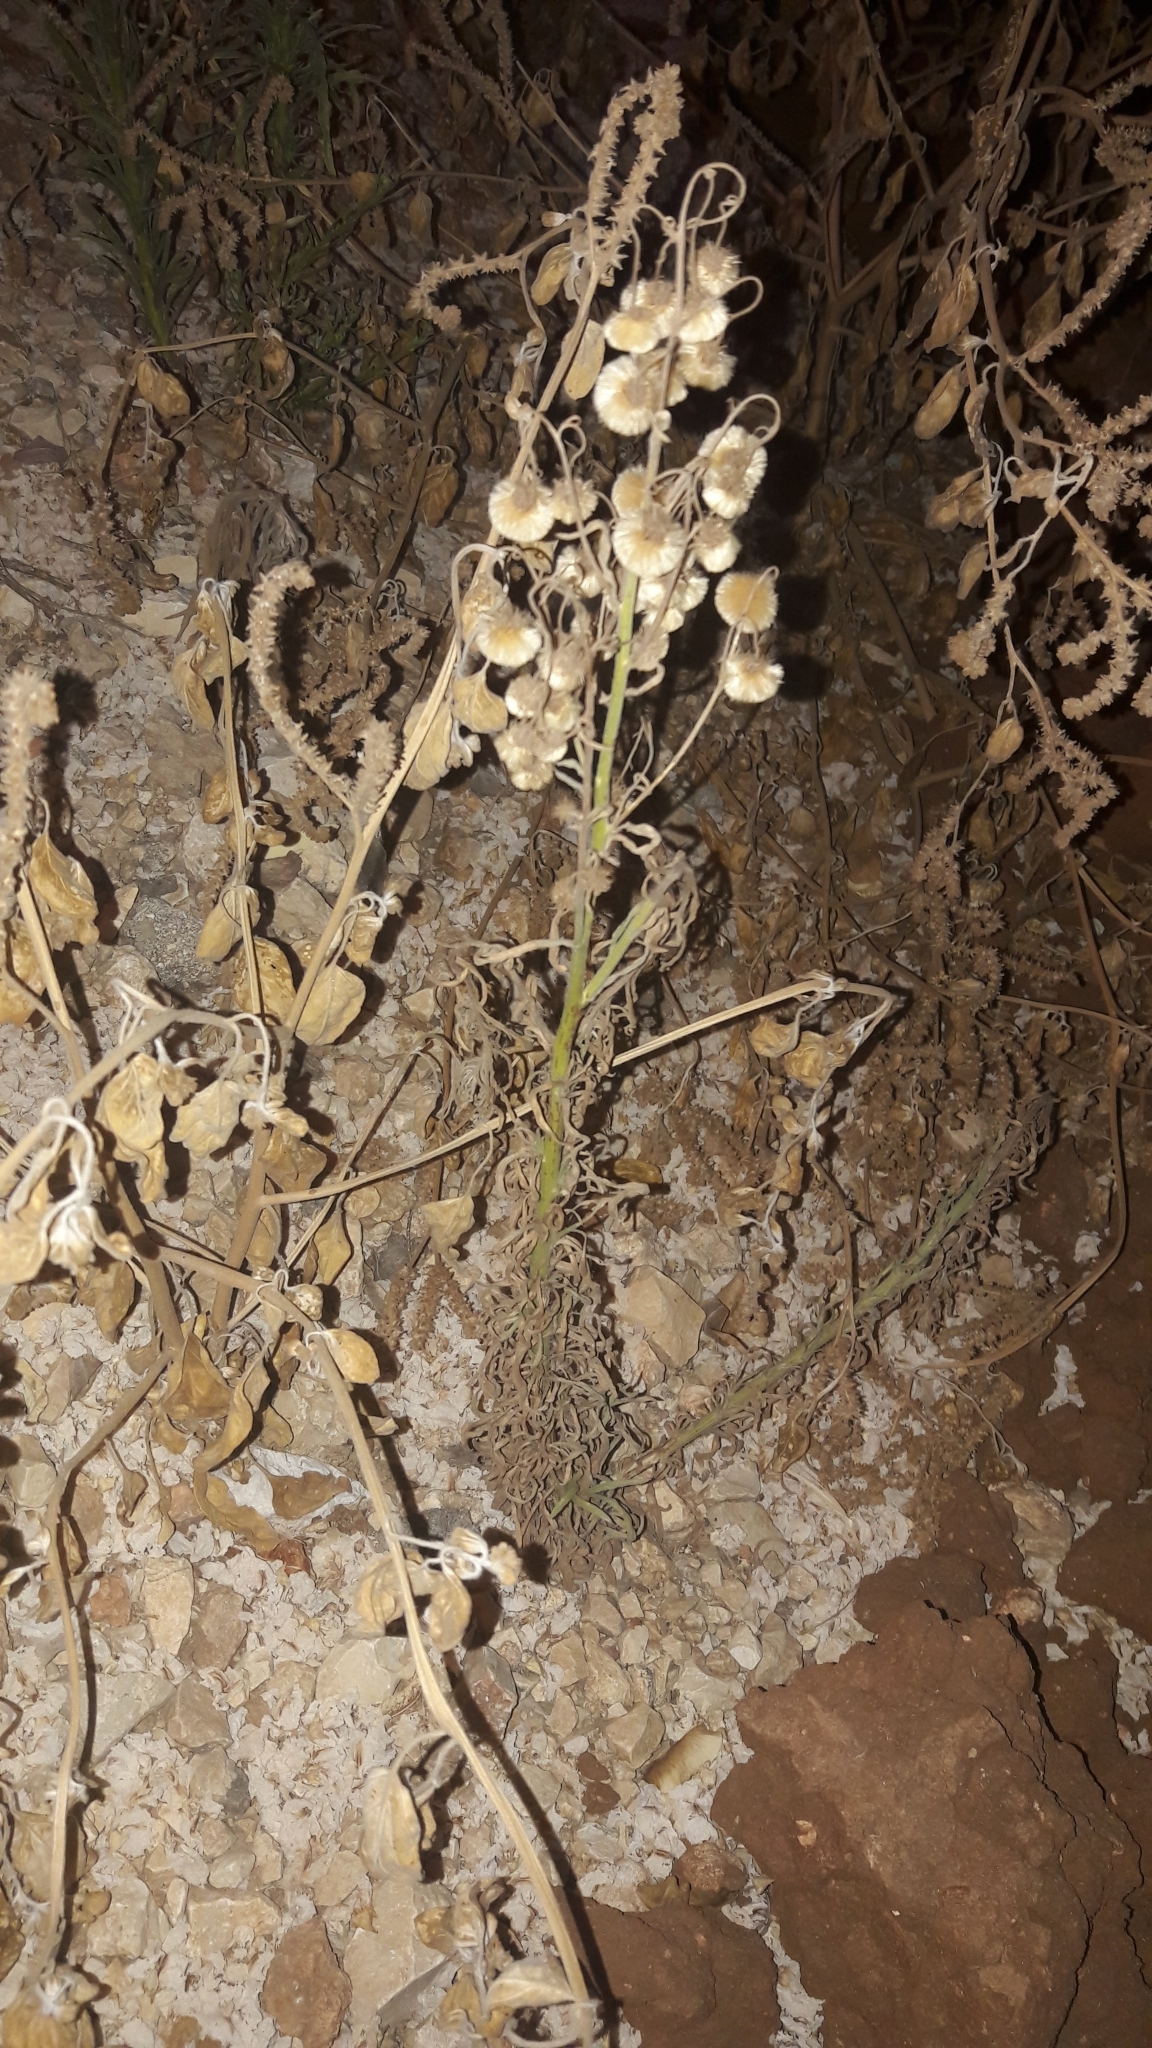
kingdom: Plantae
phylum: Tracheophyta
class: Magnoliopsida
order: Asterales
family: Asteraceae
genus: Erigeron
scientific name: Erigeron bonariensis
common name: Argentine fleabane
